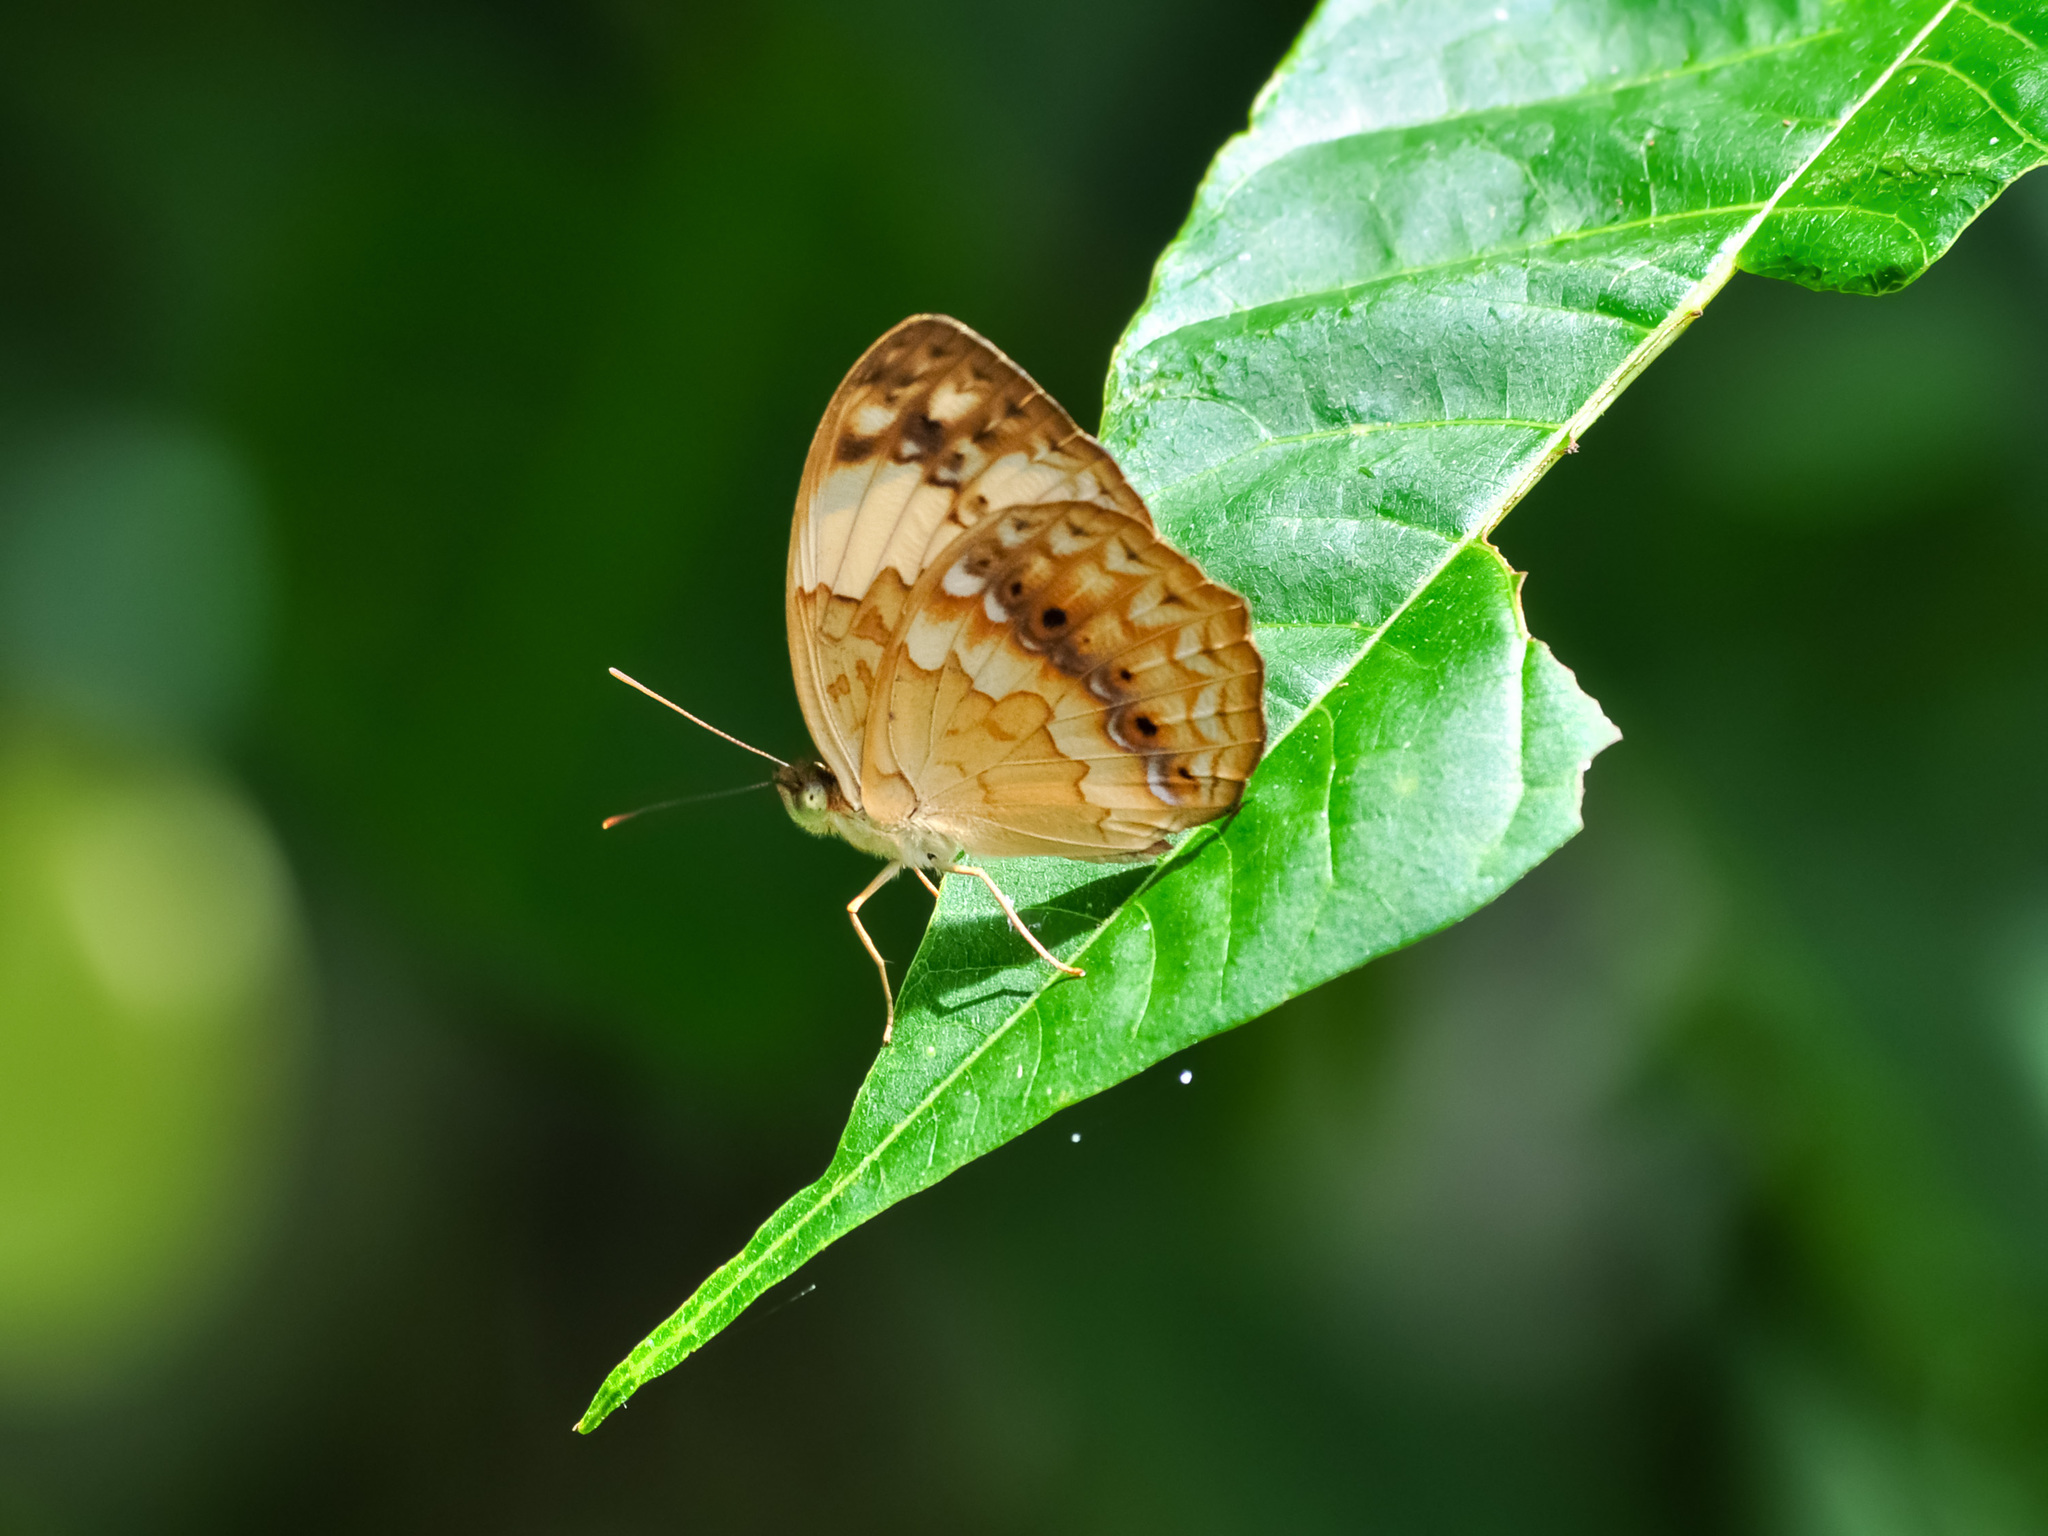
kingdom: Animalia
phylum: Arthropoda
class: Insecta
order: Lepidoptera
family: Nymphalidae
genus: Cupha
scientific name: Cupha erymanthis
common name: Rustic
